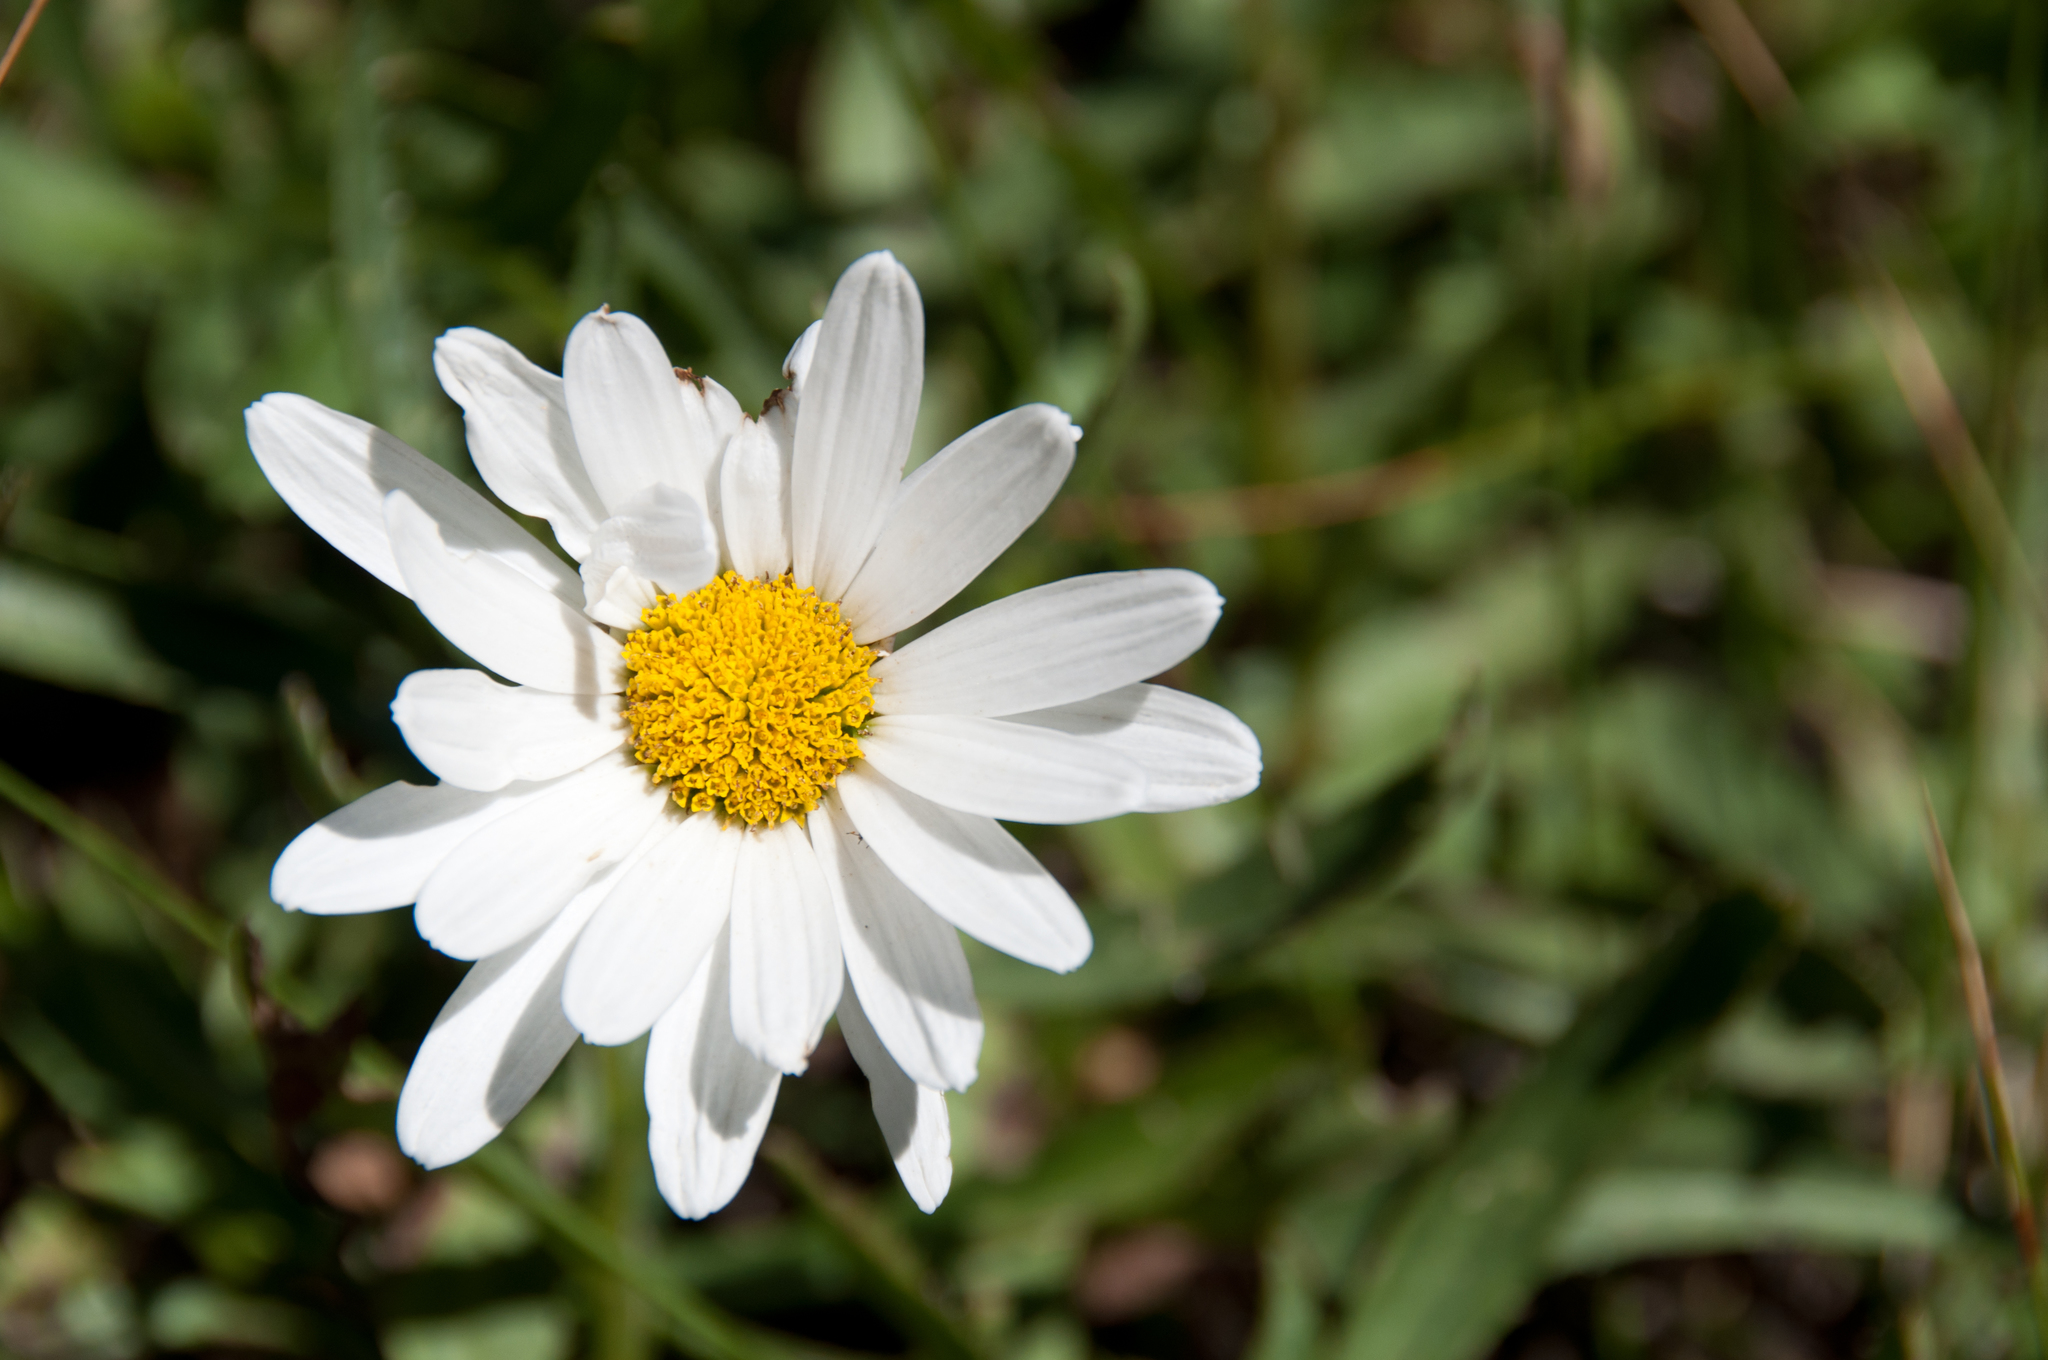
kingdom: Plantae
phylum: Tracheophyta
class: Magnoliopsida
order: Asterales
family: Asteraceae
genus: Leucanthemum
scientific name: Leucanthemum vulgare
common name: Oxeye daisy
